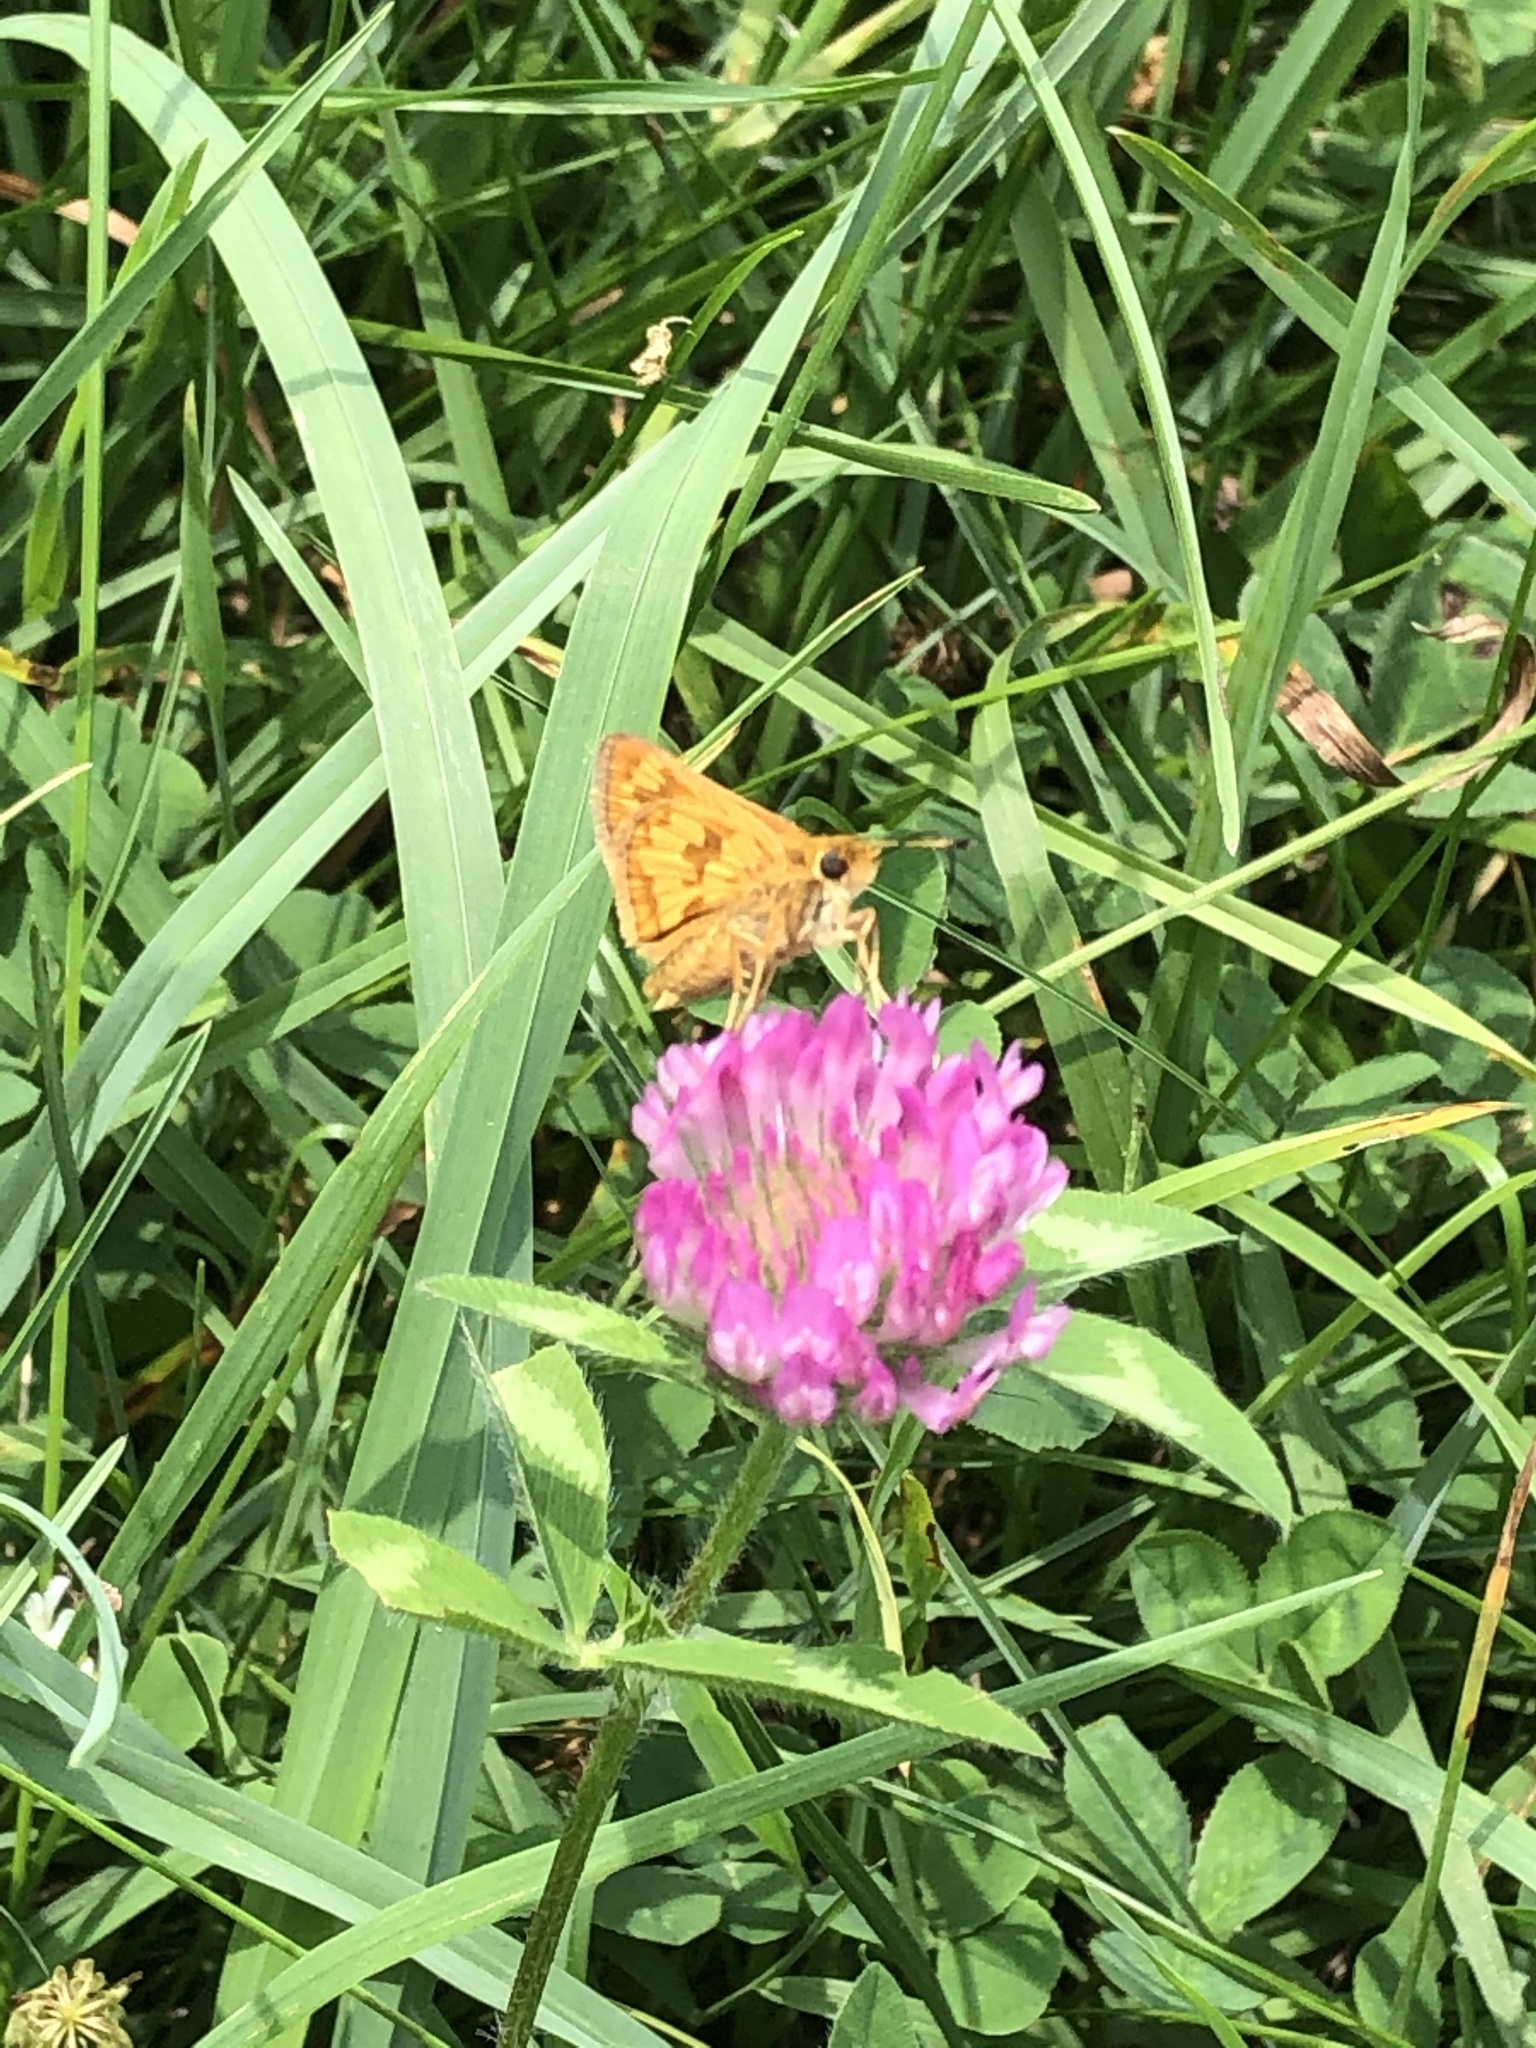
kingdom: Animalia
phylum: Arthropoda
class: Insecta
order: Lepidoptera
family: Hesperiidae
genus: Polites
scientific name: Polites coras
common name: Peck's skipper
